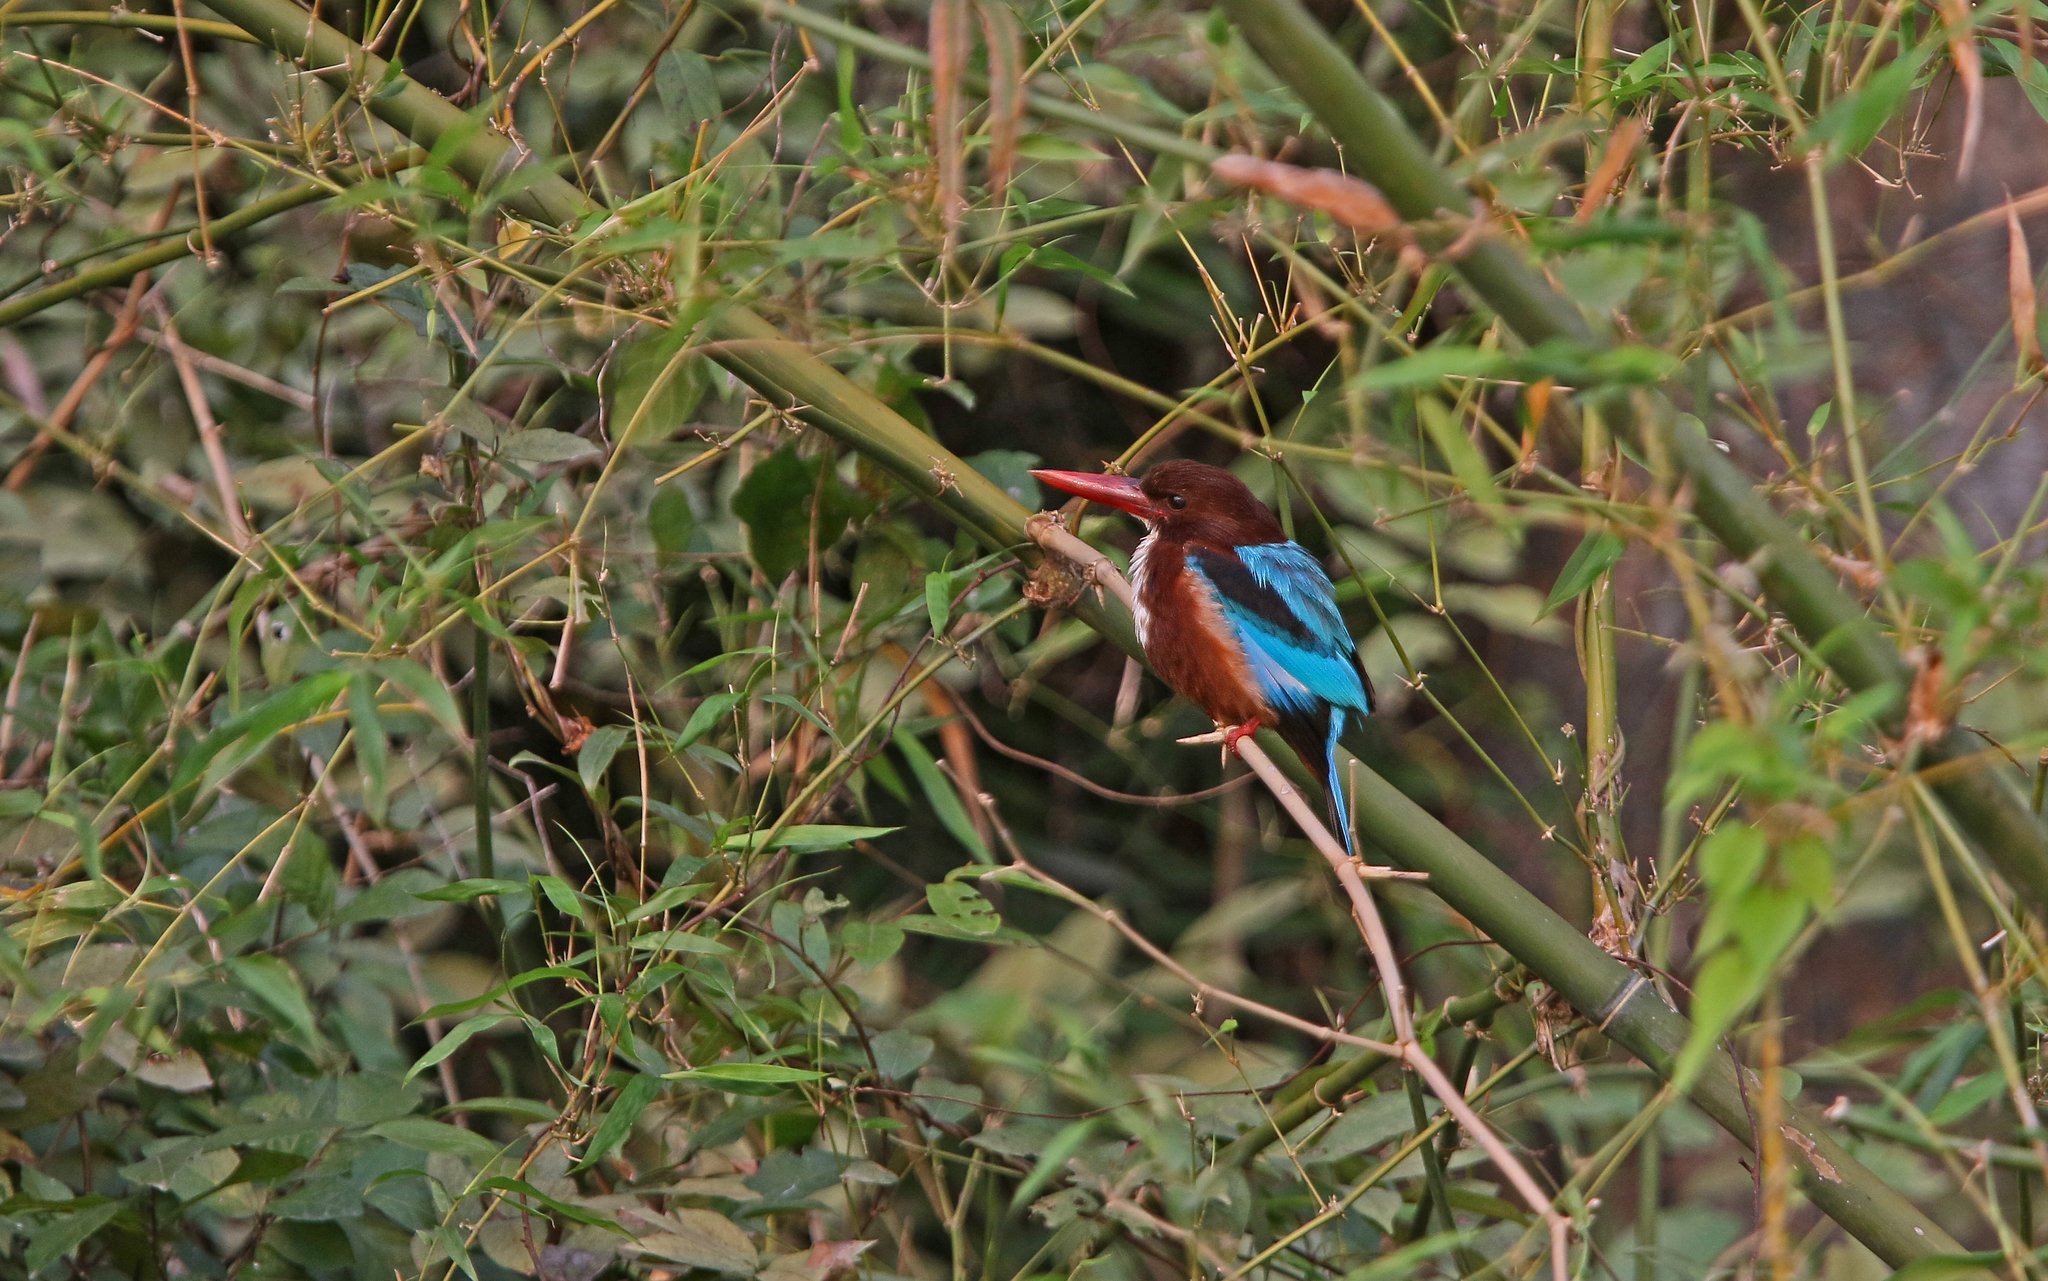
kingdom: Animalia
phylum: Chordata
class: Aves
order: Coraciiformes
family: Alcedinidae
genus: Halcyon
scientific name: Halcyon smyrnensis
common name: White-throated kingfisher
